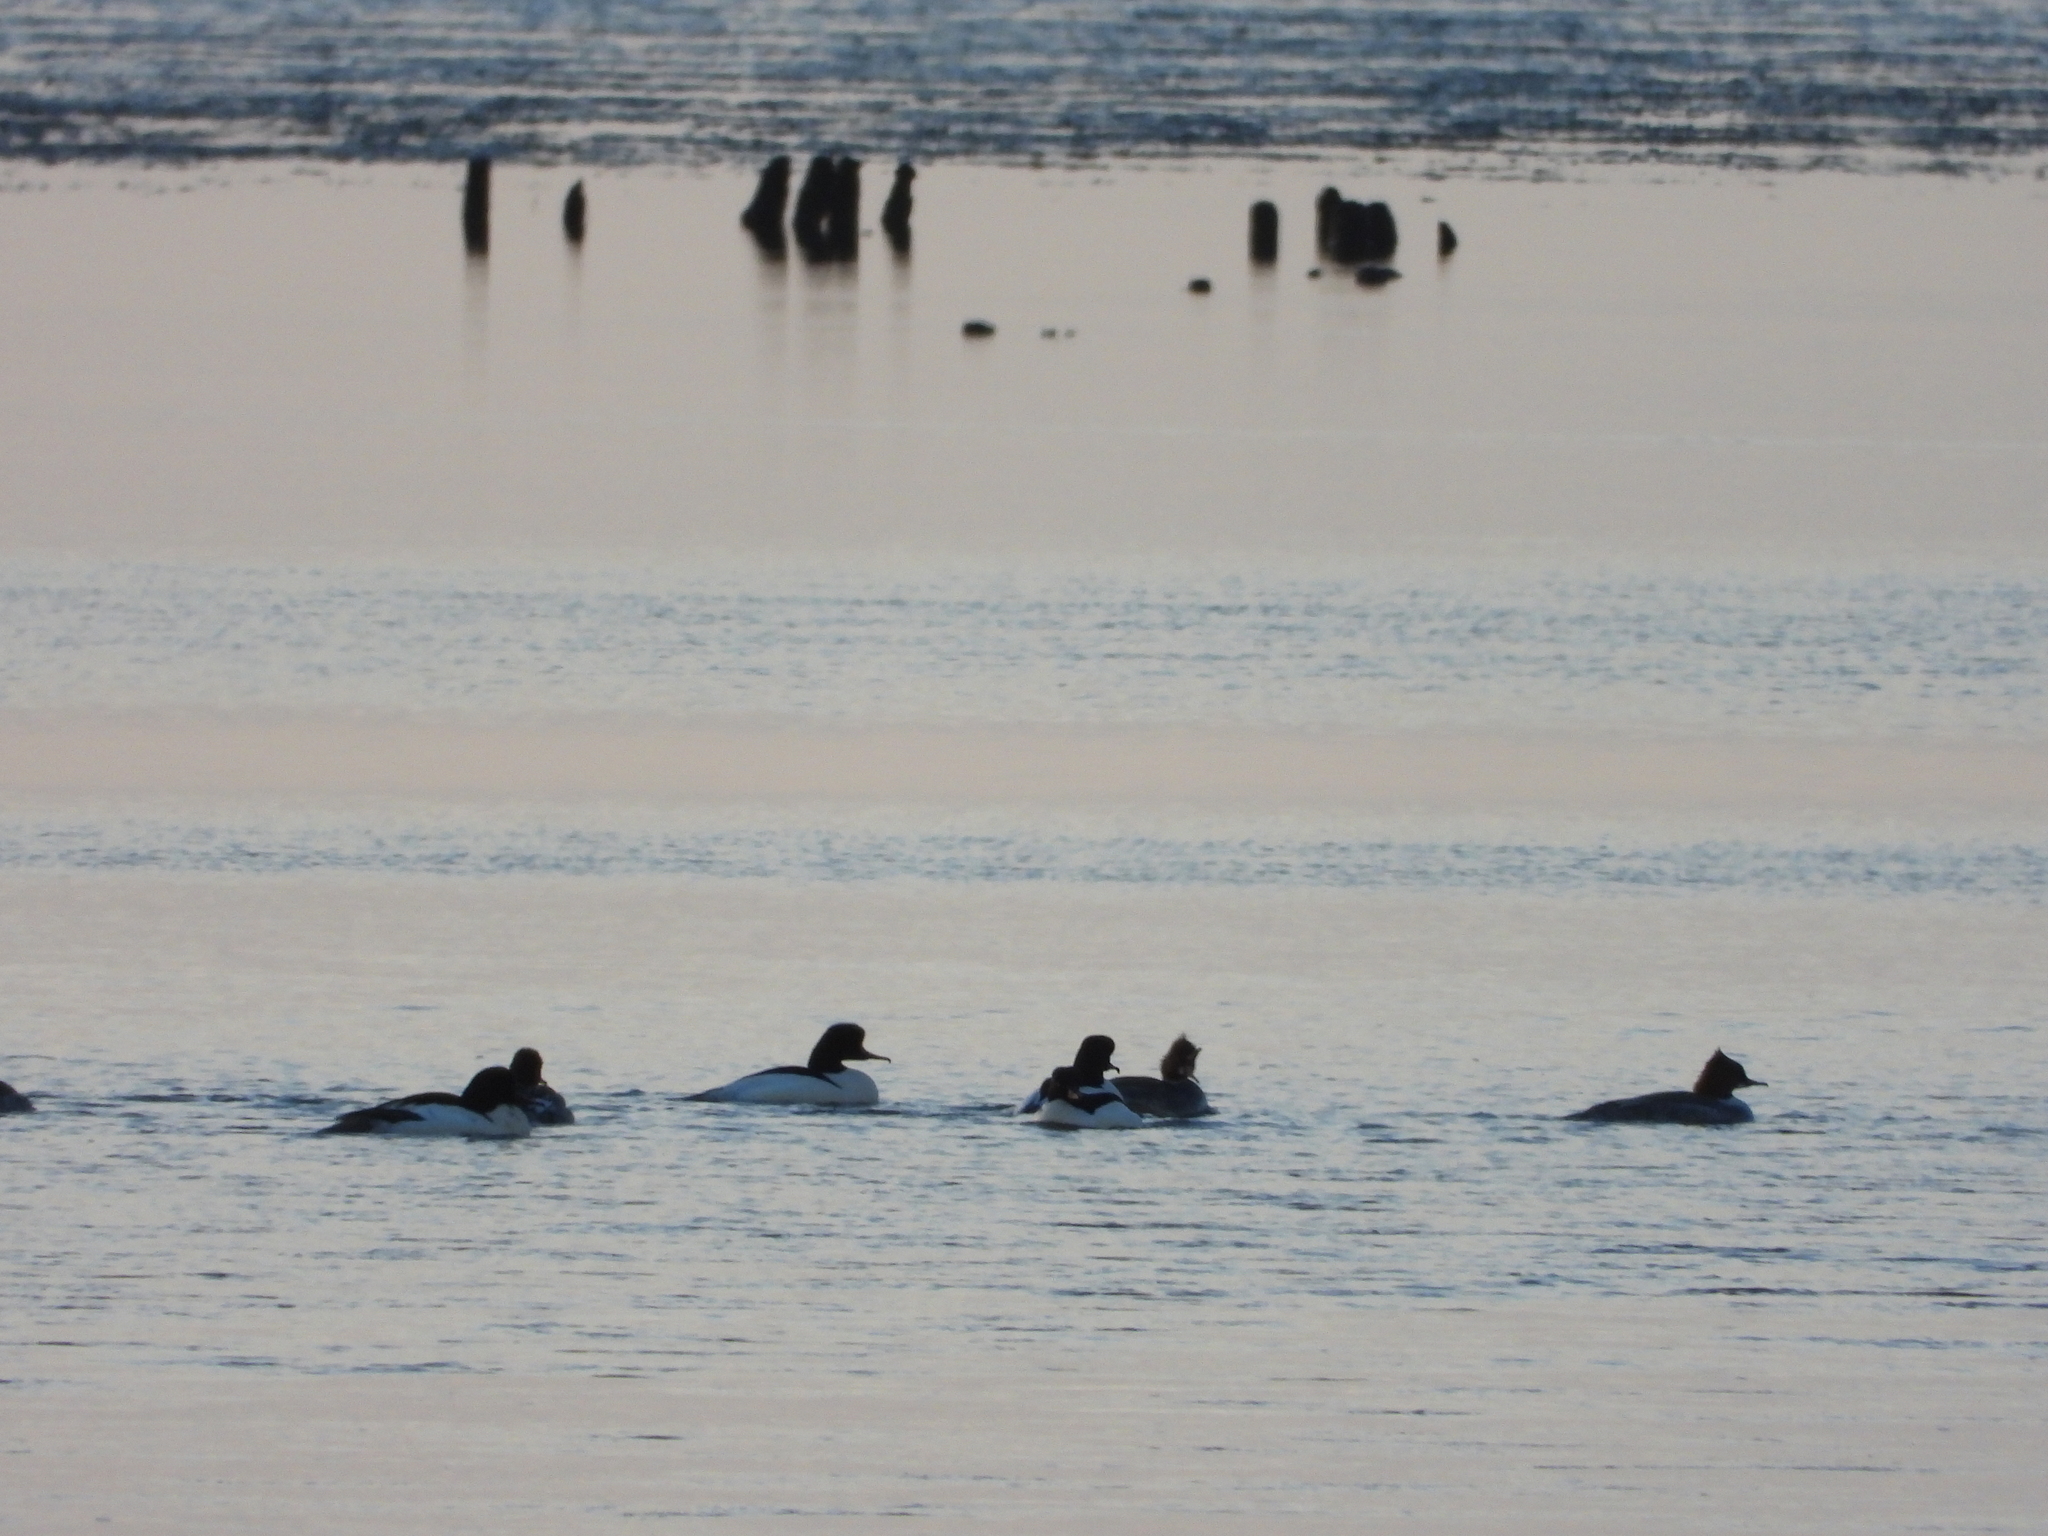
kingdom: Animalia
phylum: Chordata
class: Aves
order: Anseriformes
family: Anatidae
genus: Mergus
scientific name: Mergus merganser
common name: Common merganser
